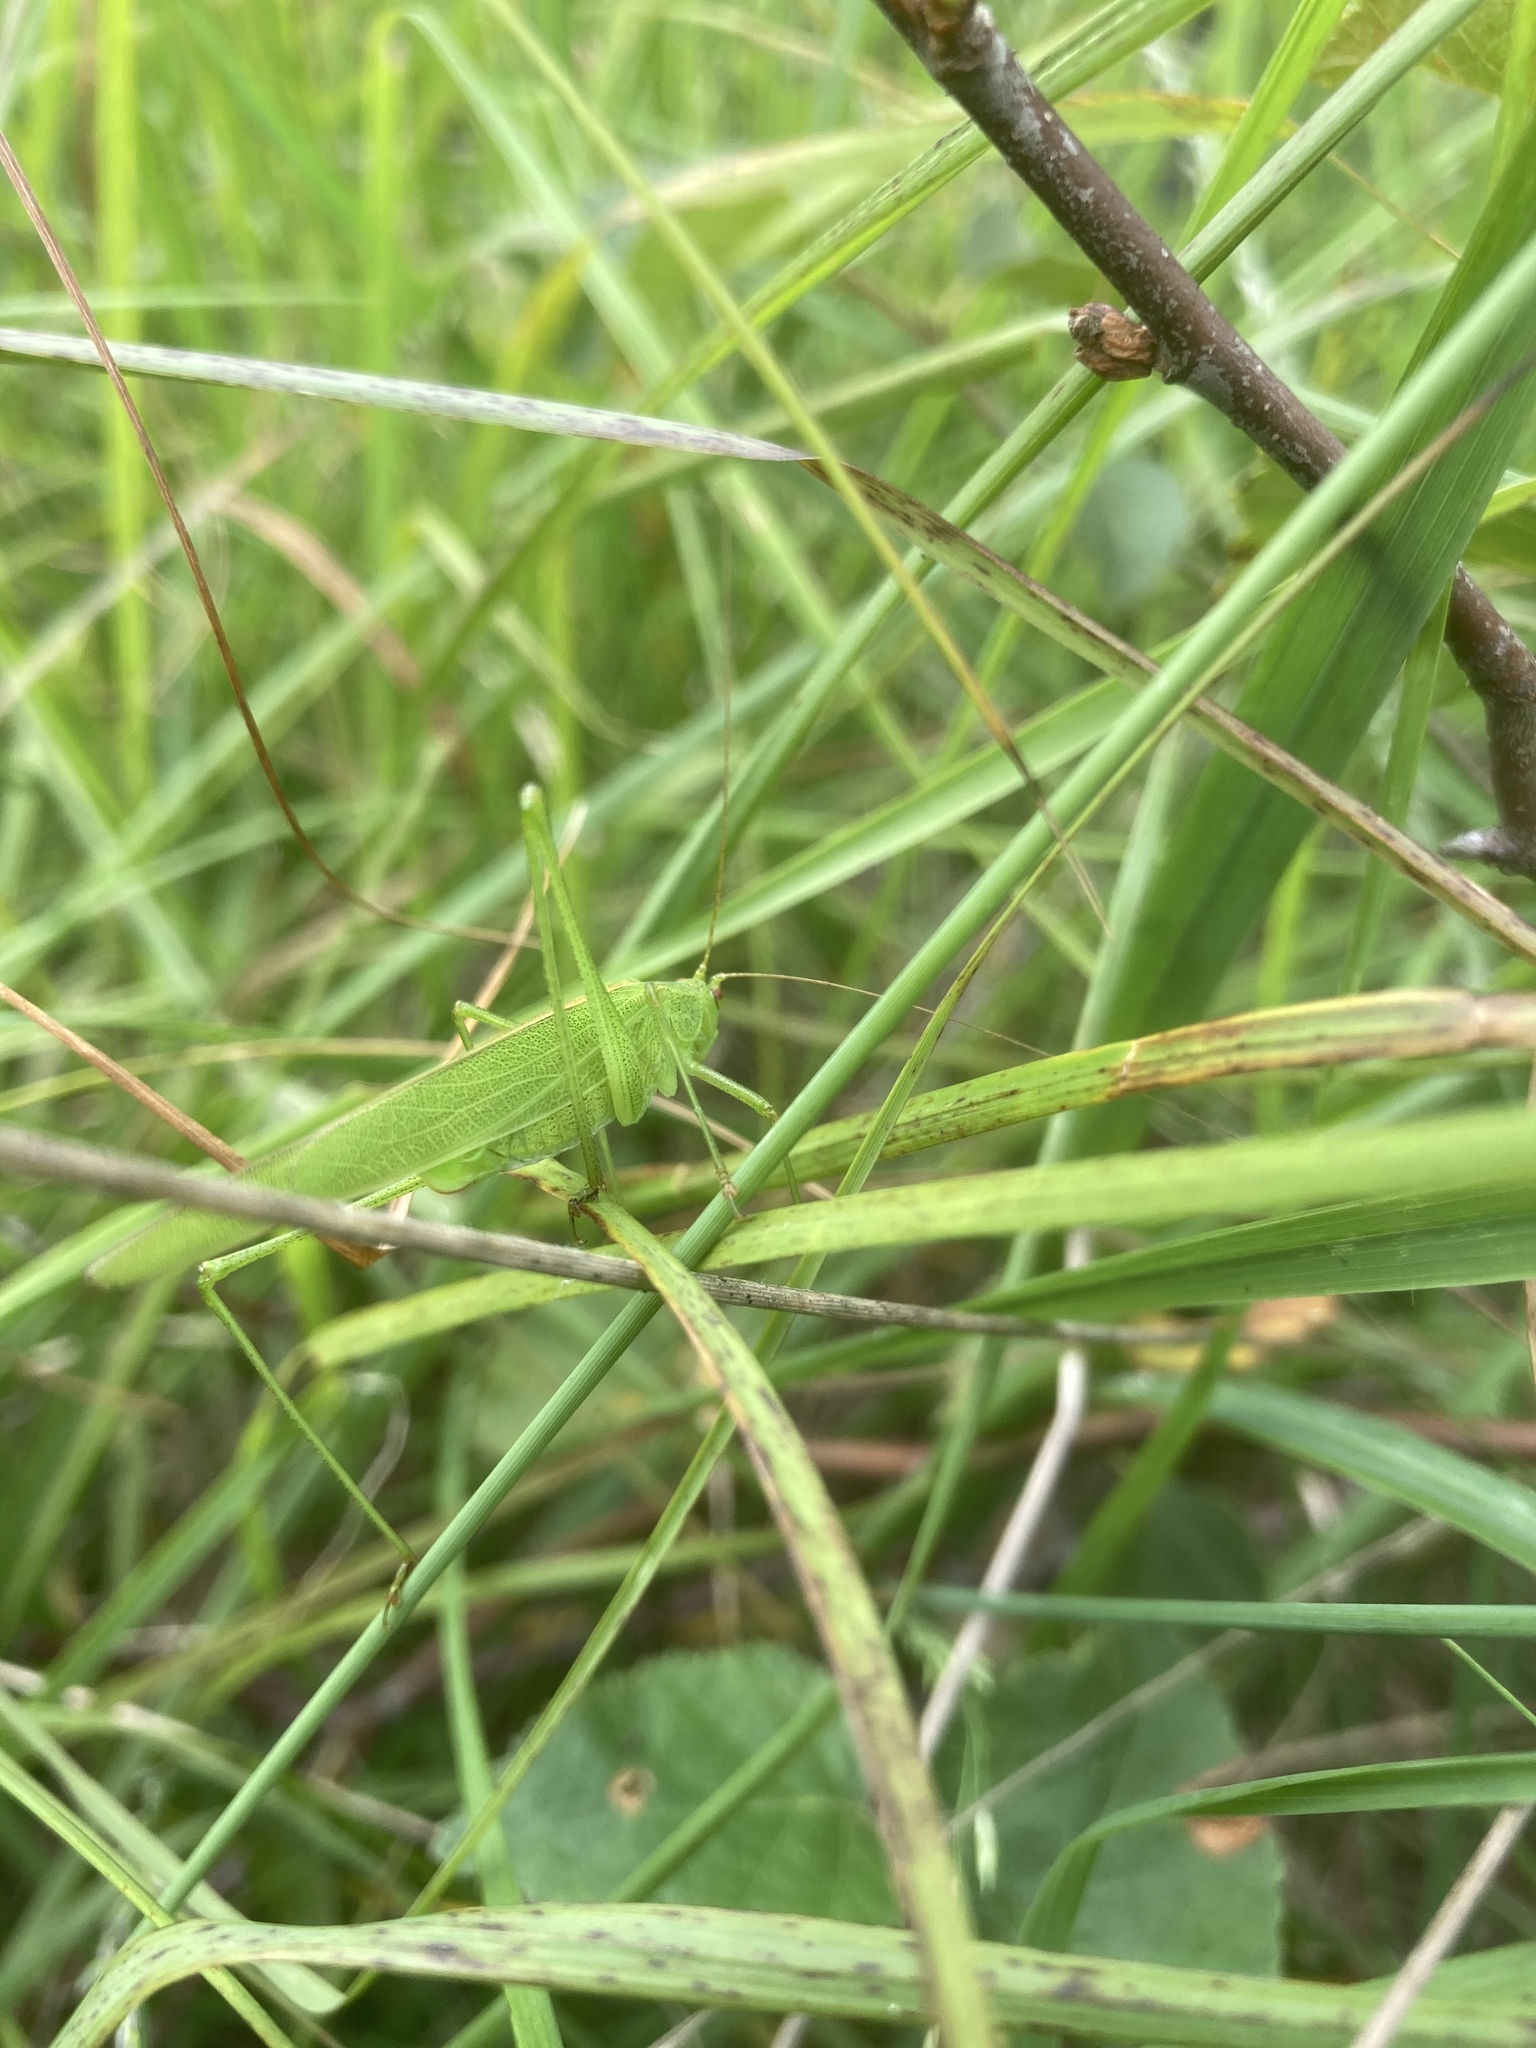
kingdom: Animalia
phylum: Arthropoda
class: Insecta
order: Orthoptera
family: Tettigoniidae
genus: Phaneroptera
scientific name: Phaneroptera falcata
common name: Sickle-bearing bush-cricket
